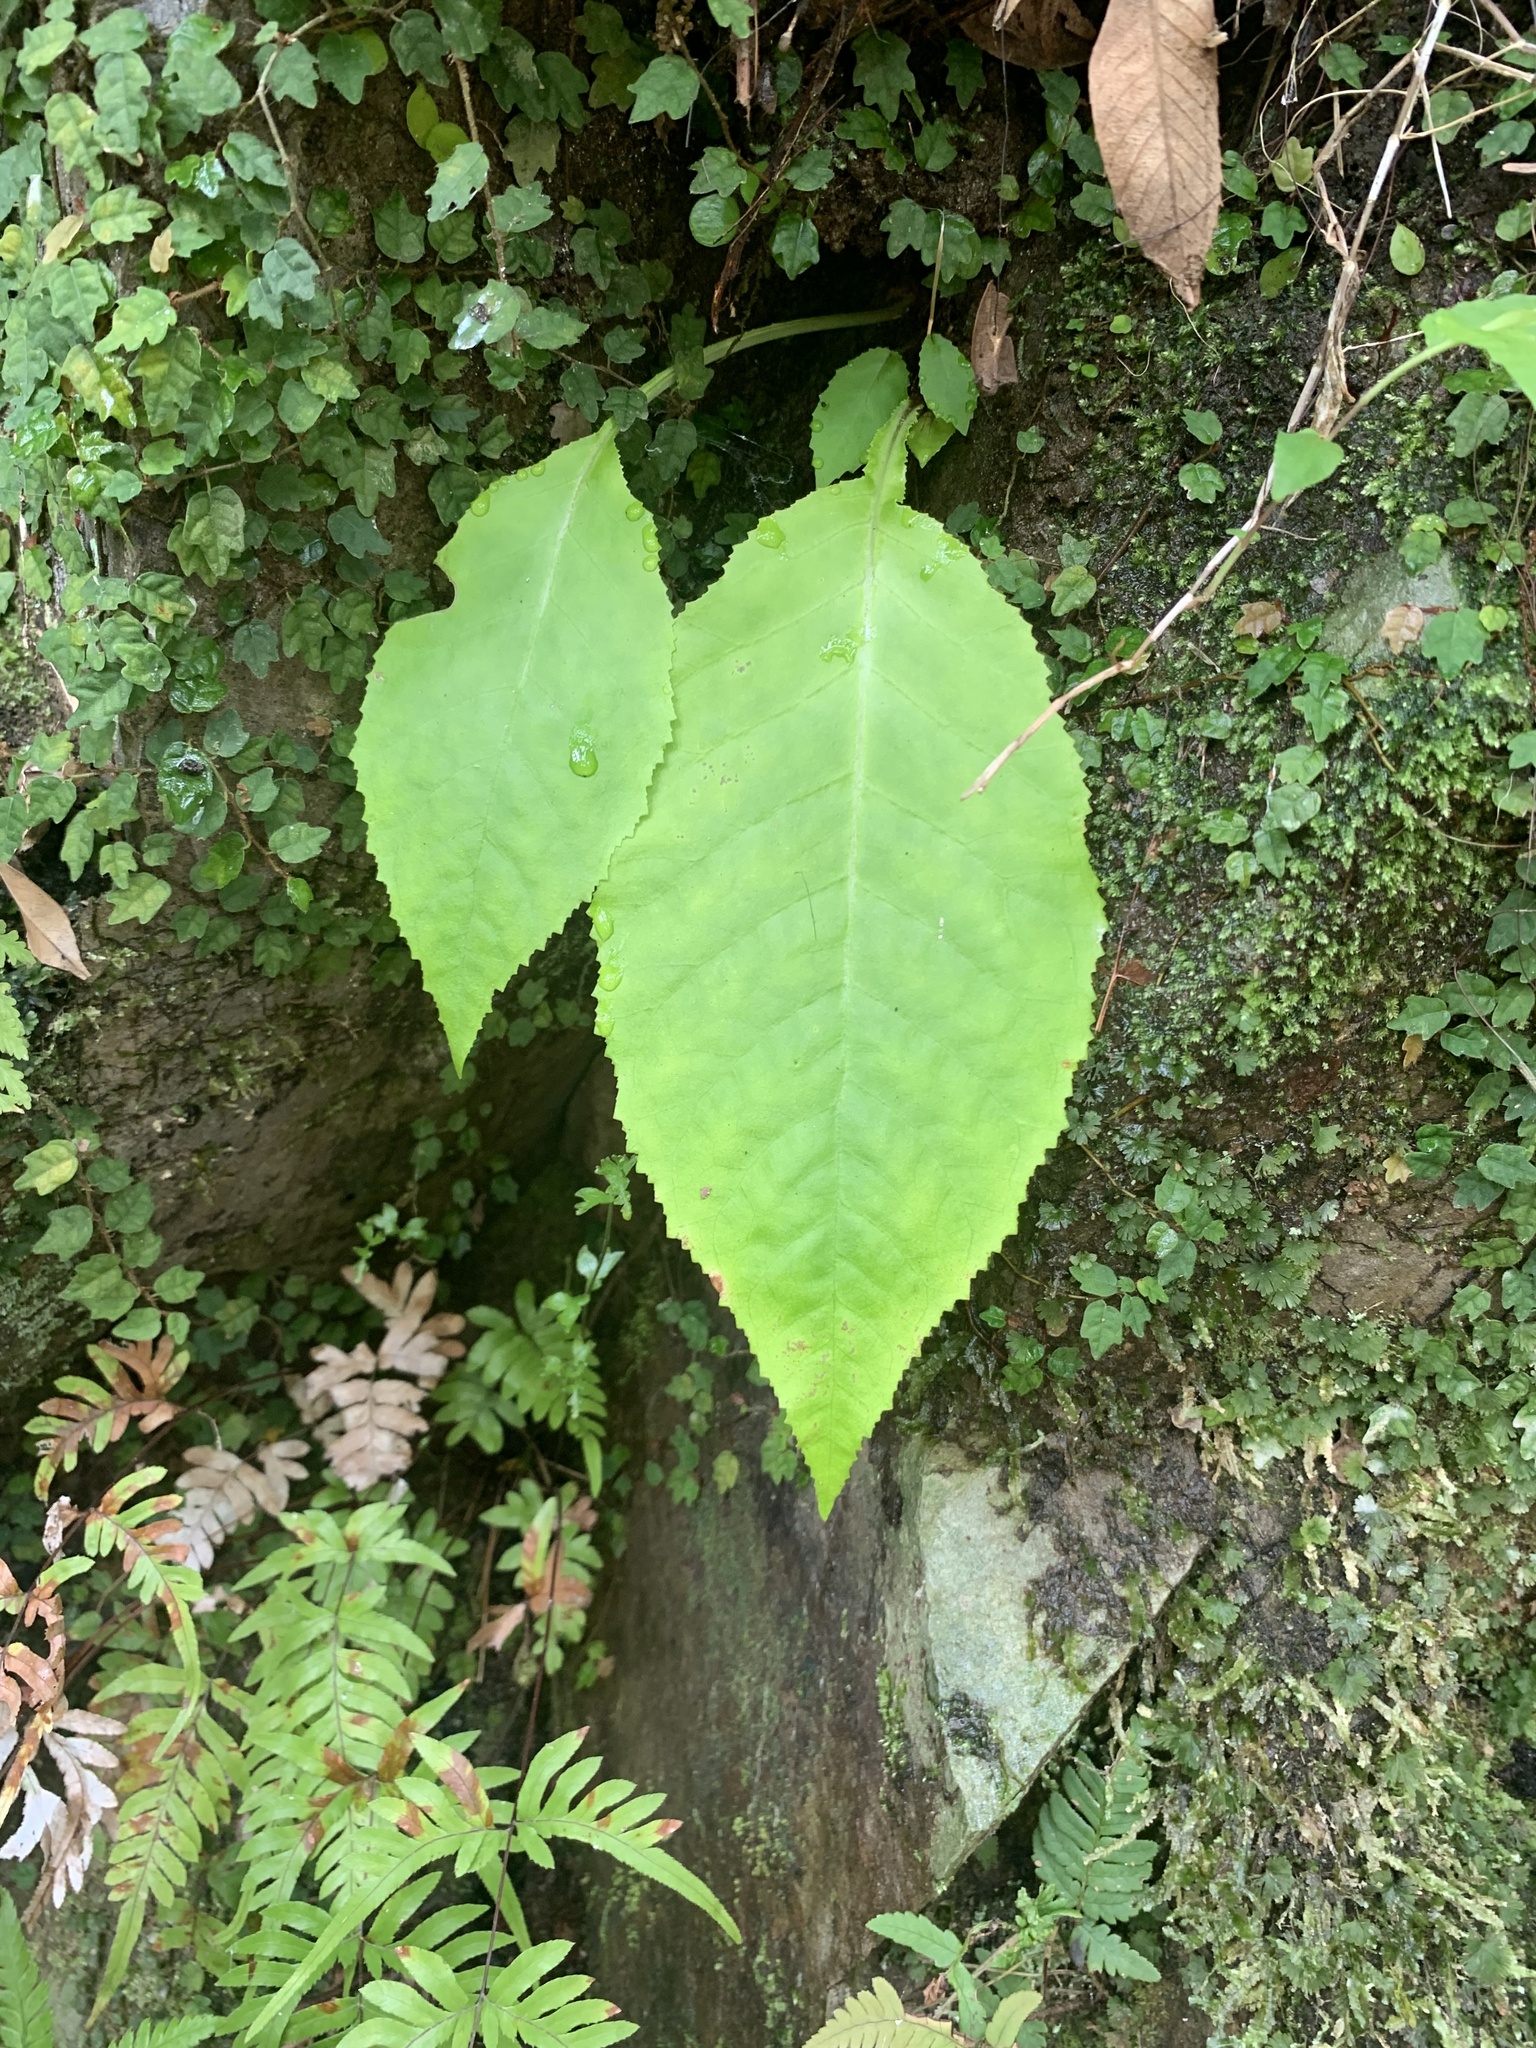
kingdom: Plantae
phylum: Tracheophyta
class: Magnoliopsida
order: Lamiales
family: Gesneriaceae
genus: Conandron
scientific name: Conandron ramondioides
